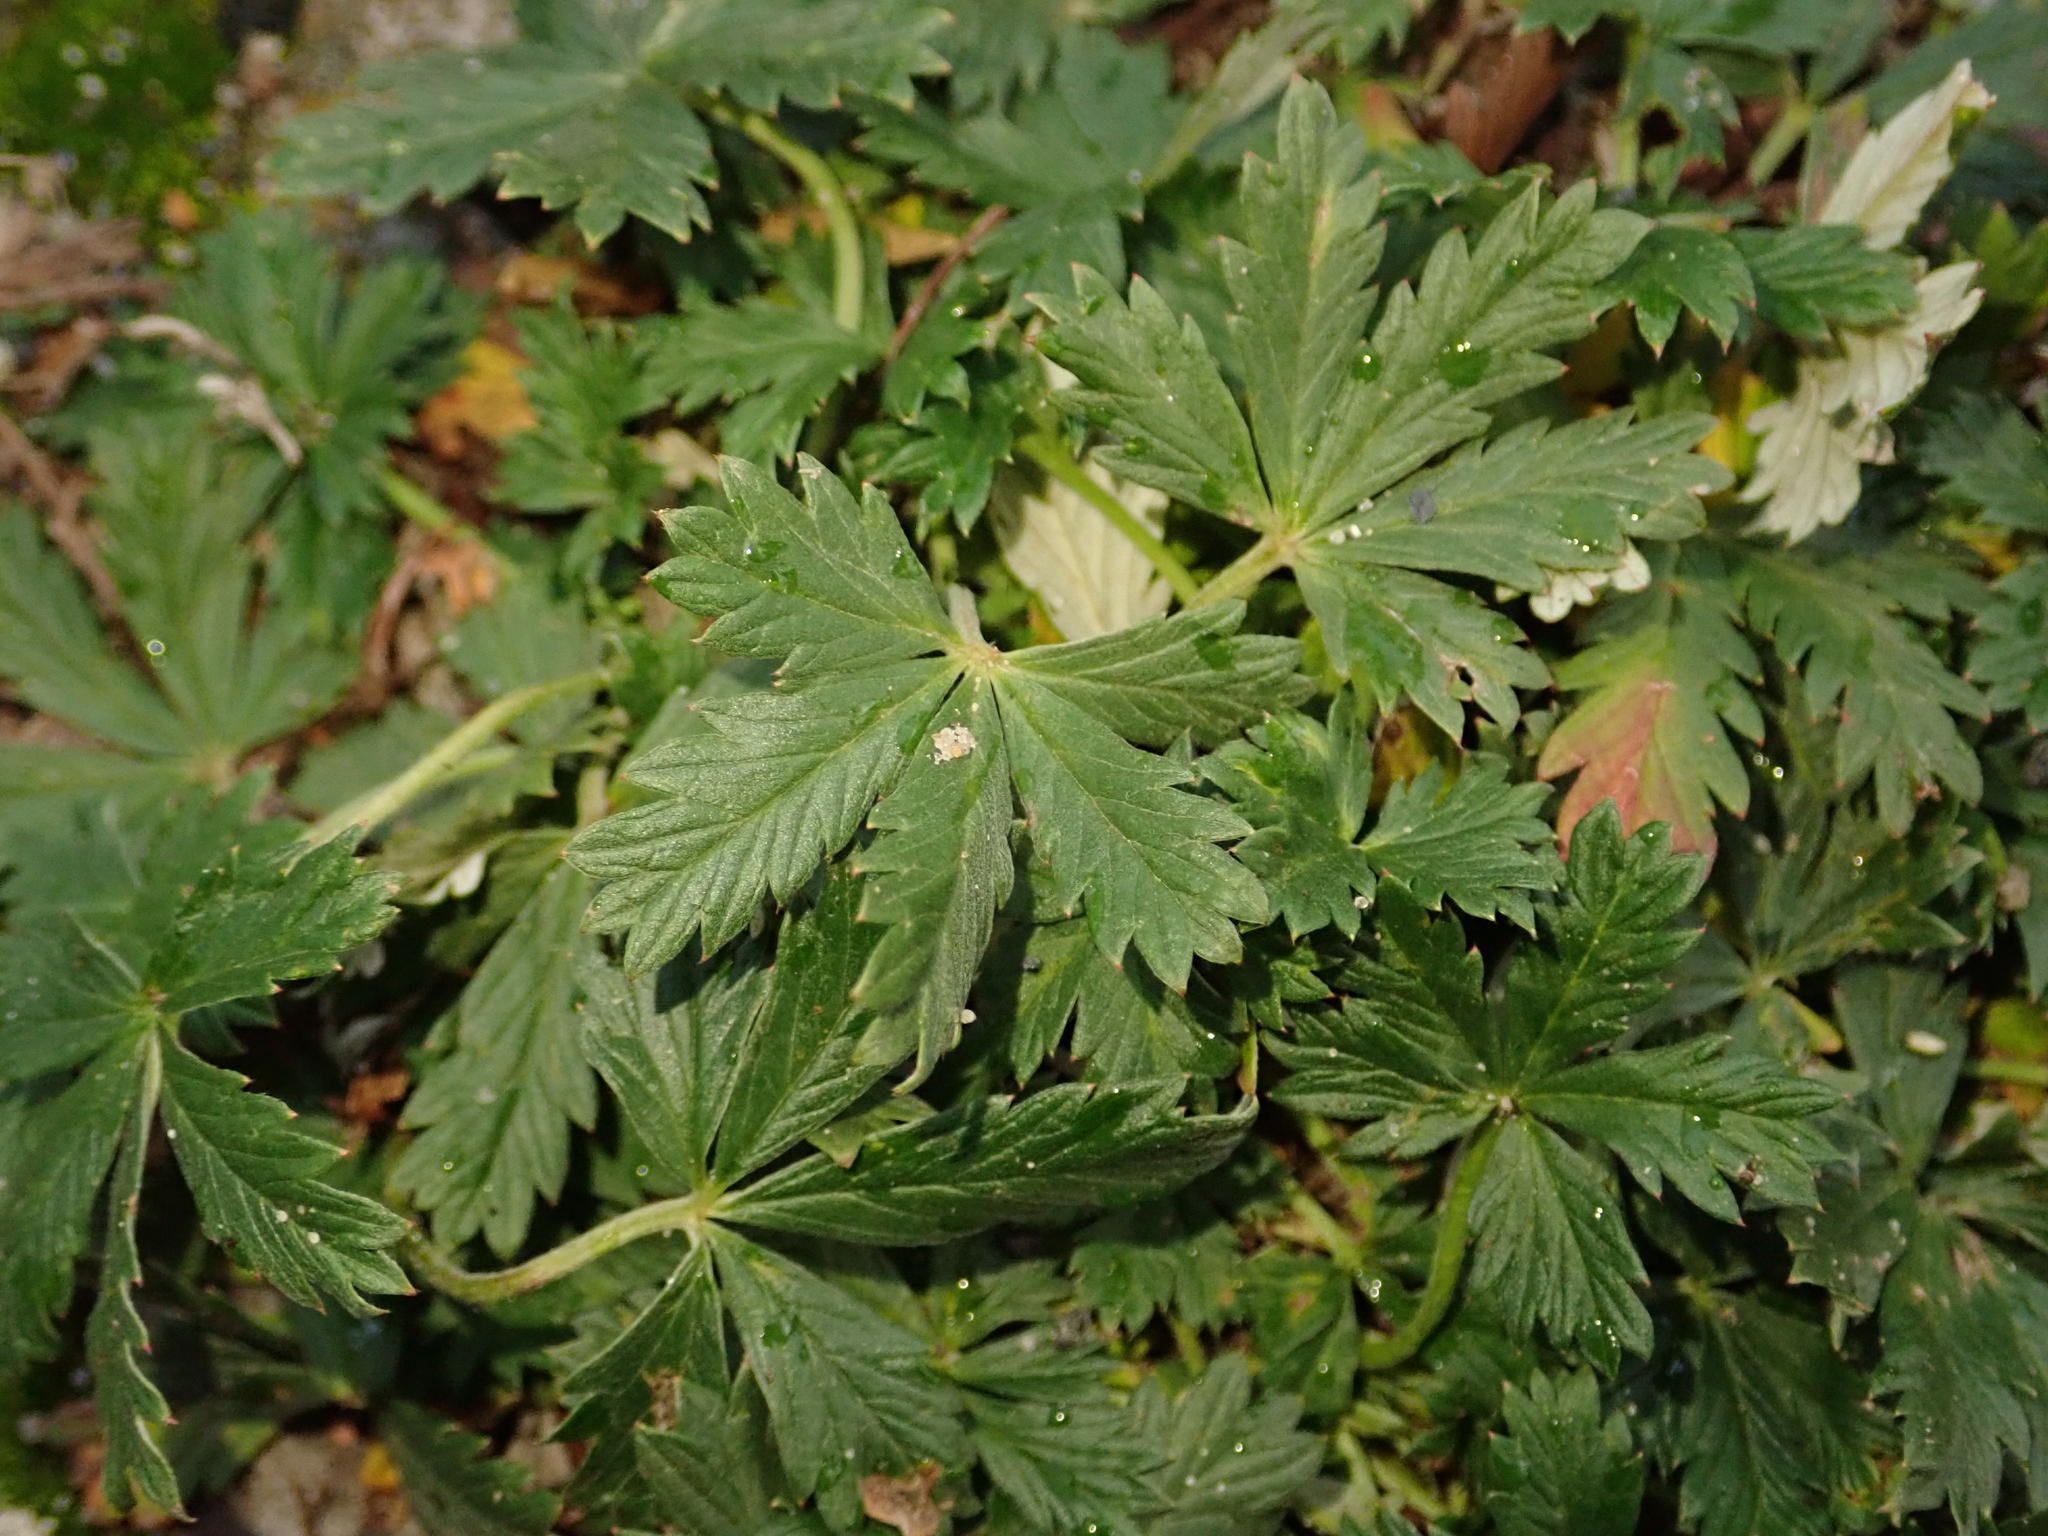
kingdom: Plantae
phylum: Tracheophyta
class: Magnoliopsida
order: Rosales
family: Rosaceae
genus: Potentilla
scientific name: Potentilla argentea
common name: Hoary cinquefoil
